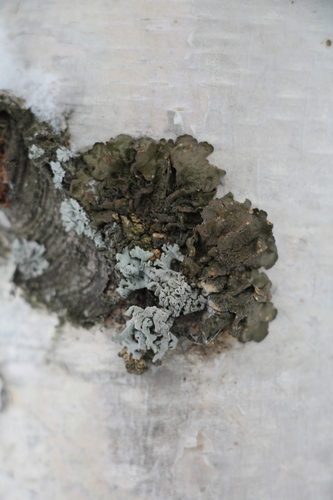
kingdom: Fungi
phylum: Ascomycota
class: Lecanoromycetes
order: Lecanorales
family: Parmeliaceae
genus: Melanohalea
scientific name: Melanohalea olivacea
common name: Spotted camouflage lichen
